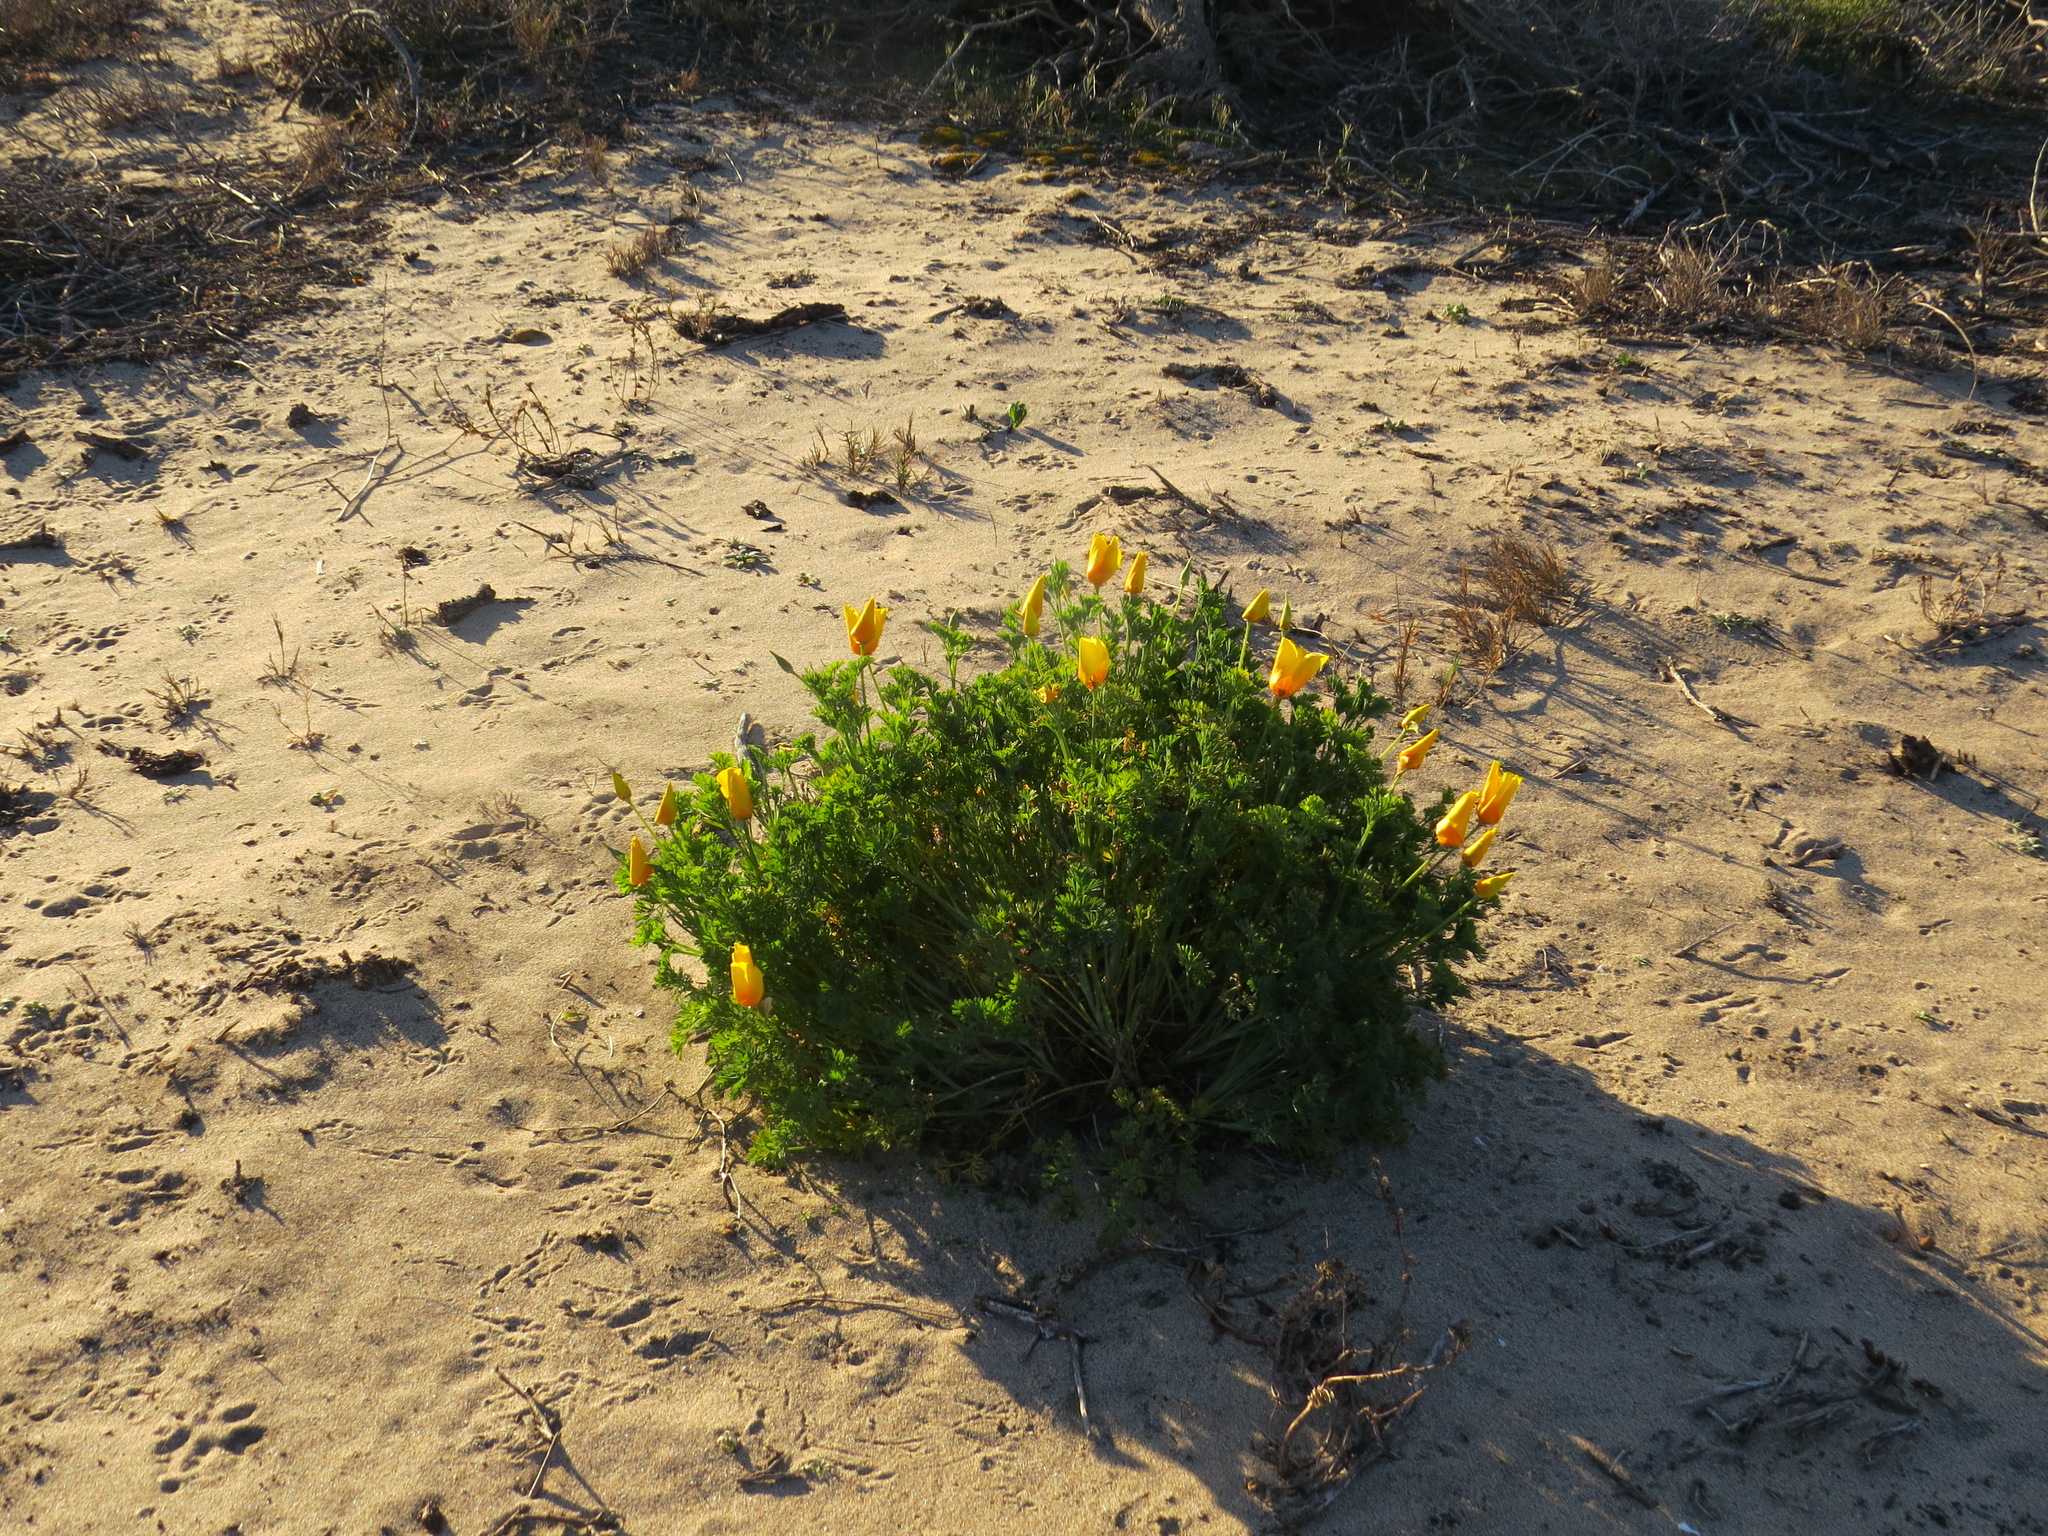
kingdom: Plantae
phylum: Tracheophyta
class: Magnoliopsida
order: Ranunculales
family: Papaveraceae
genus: Eschscholzia
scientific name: Eschscholzia californica
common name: California poppy
